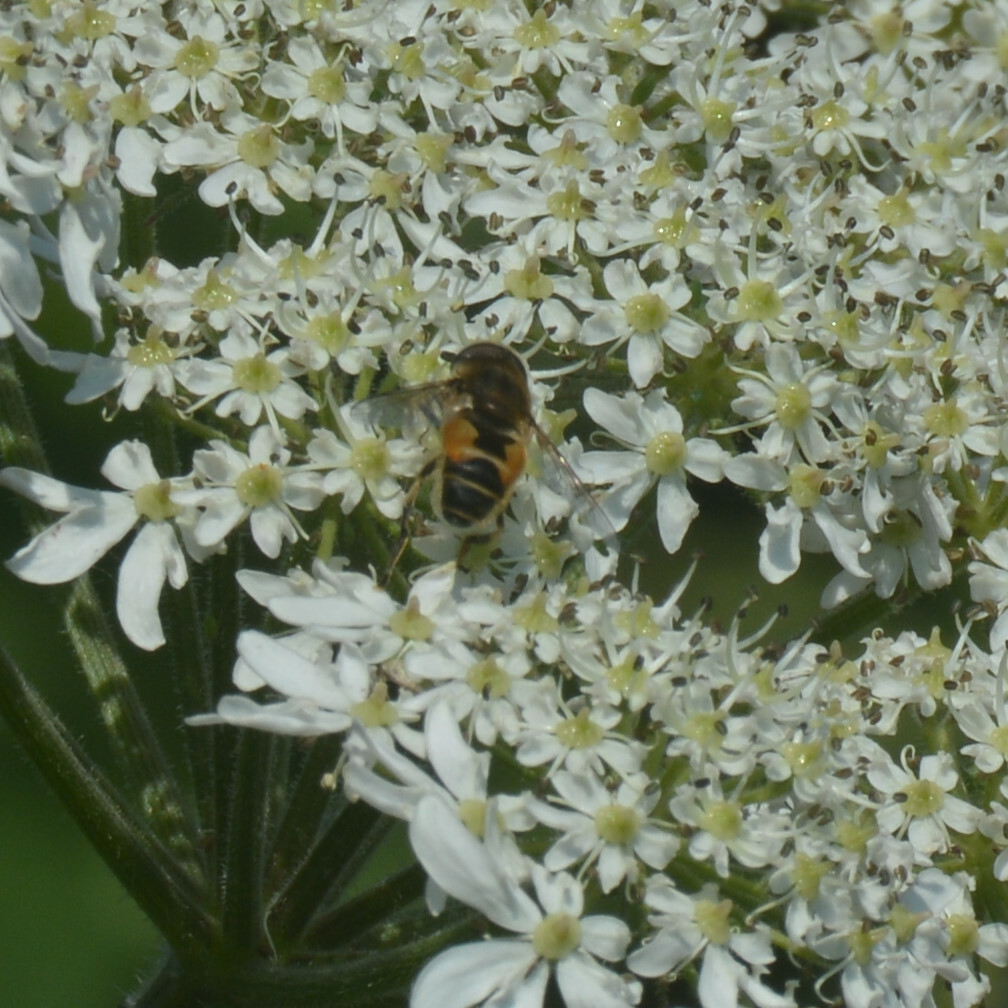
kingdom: Animalia
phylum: Arthropoda
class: Insecta
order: Diptera
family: Syrphidae
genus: Eristalis
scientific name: Eristalis arbustorum
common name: Hover fly
